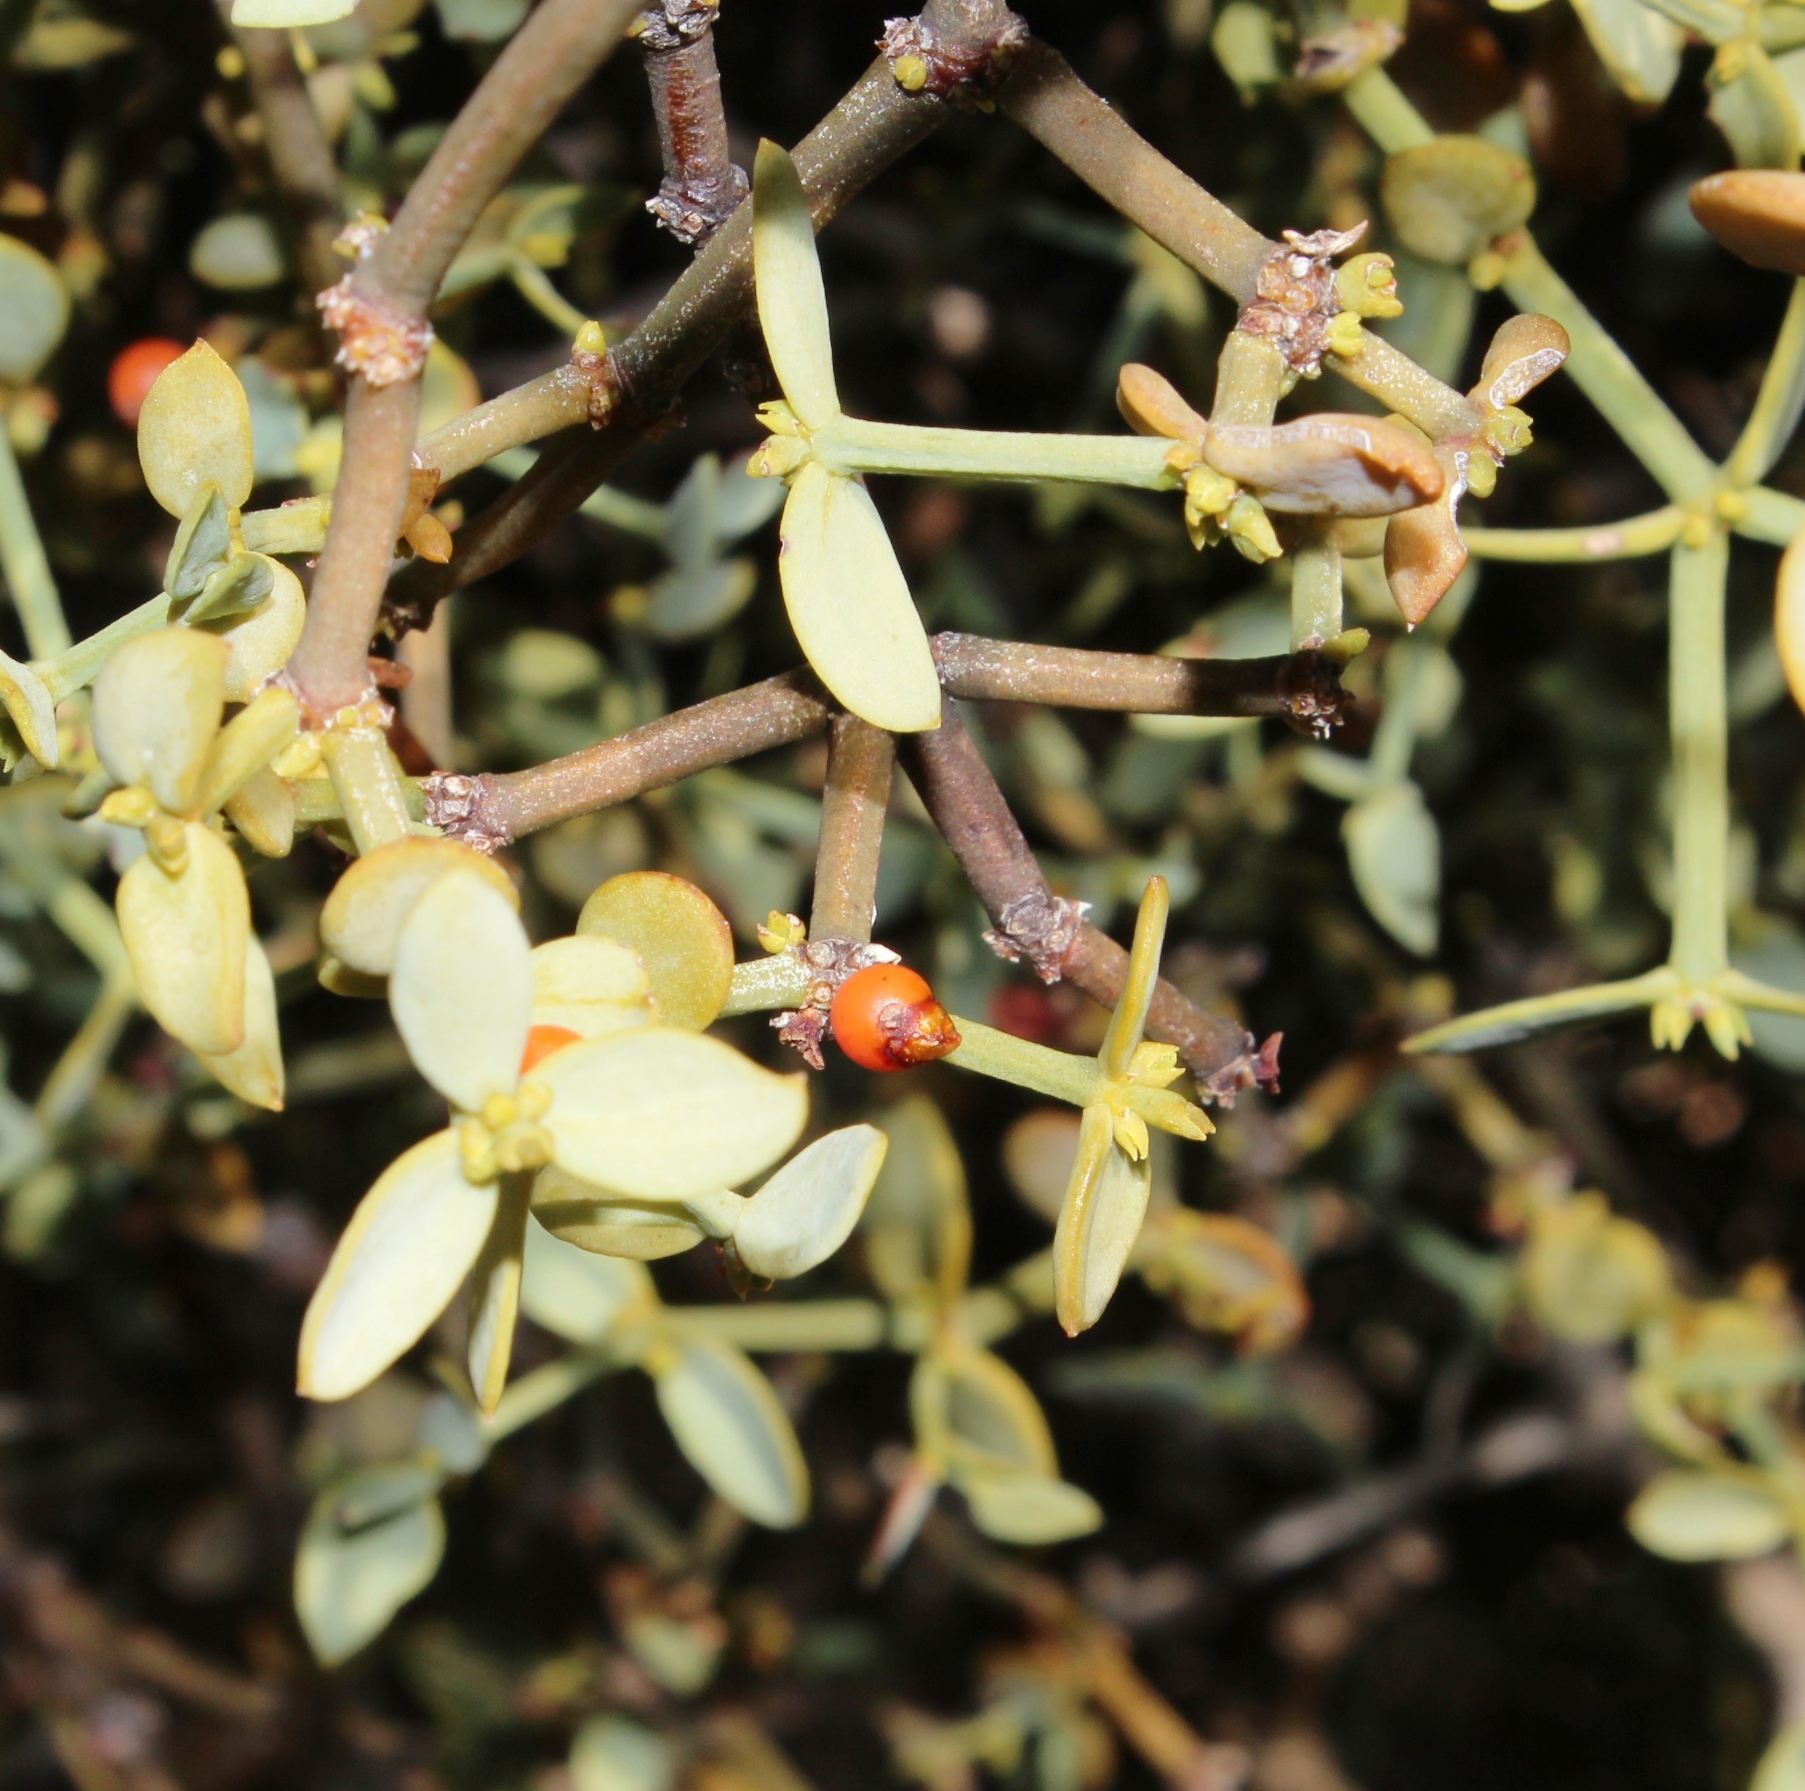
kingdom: Plantae
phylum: Tracheophyta
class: Magnoliopsida
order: Santalales
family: Viscaceae
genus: Viscum
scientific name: Viscum rotundifolium
